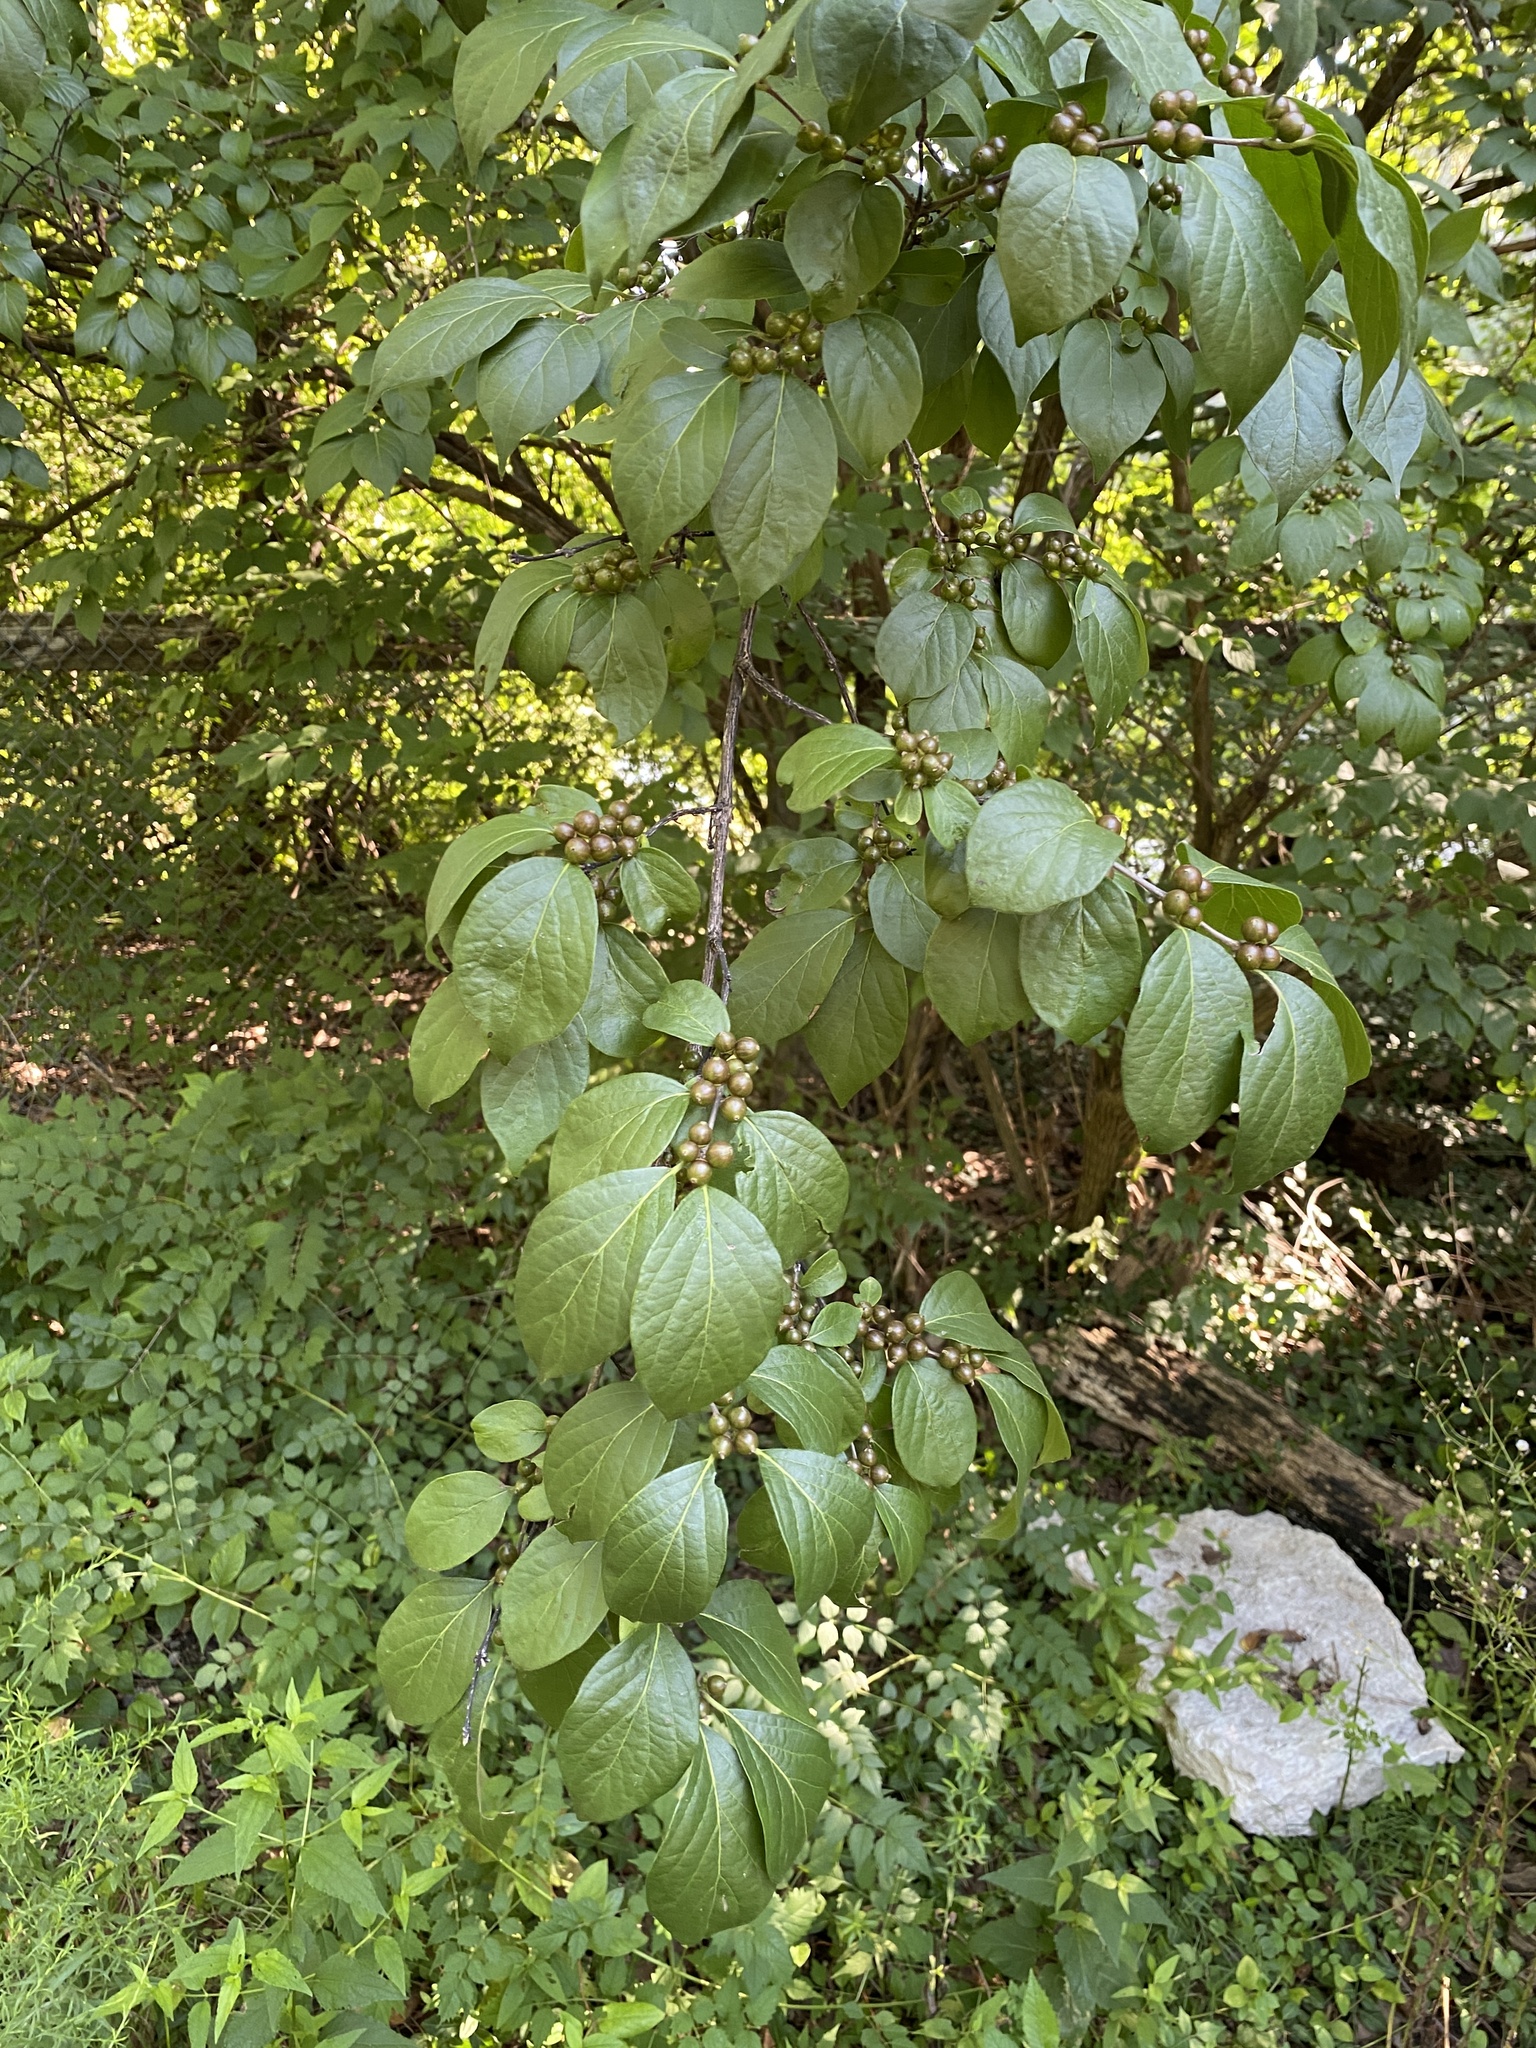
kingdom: Plantae
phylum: Tracheophyta
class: Magnoliopsida
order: Dipsacales
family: Caprifoliaceae
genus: Lonicera
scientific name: Lonicera maackii
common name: Amur honeysuckle
